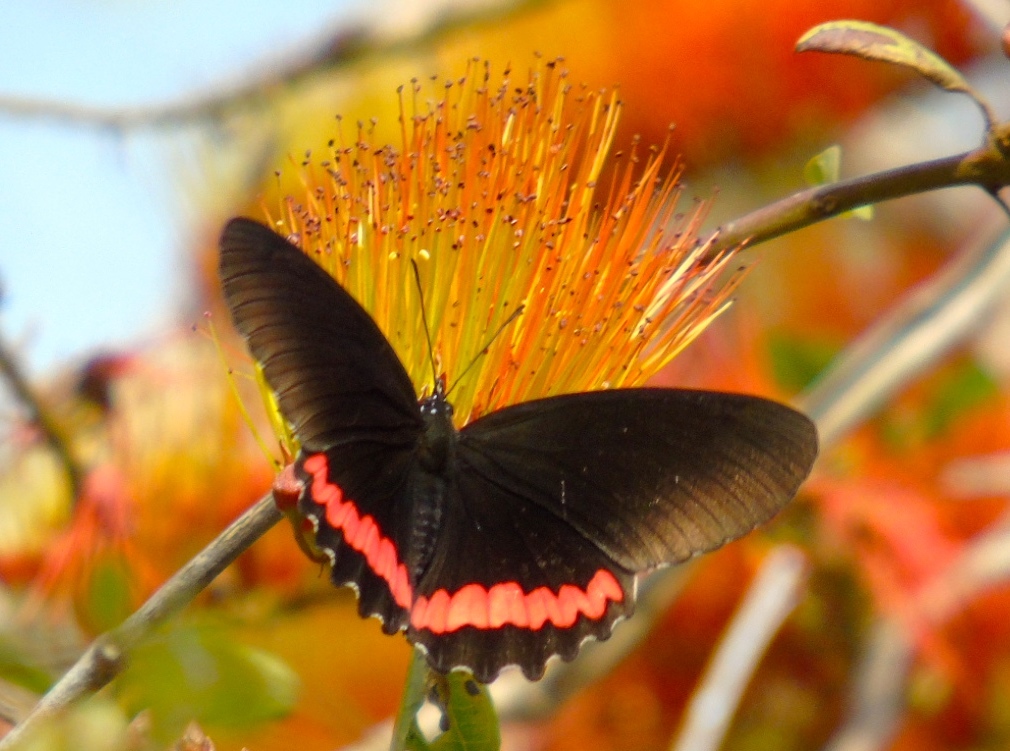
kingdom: Animalia
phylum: Arthropoda
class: Insecta
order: Lepidoptera
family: Nymphalidae
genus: Biblis
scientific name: Biblis
